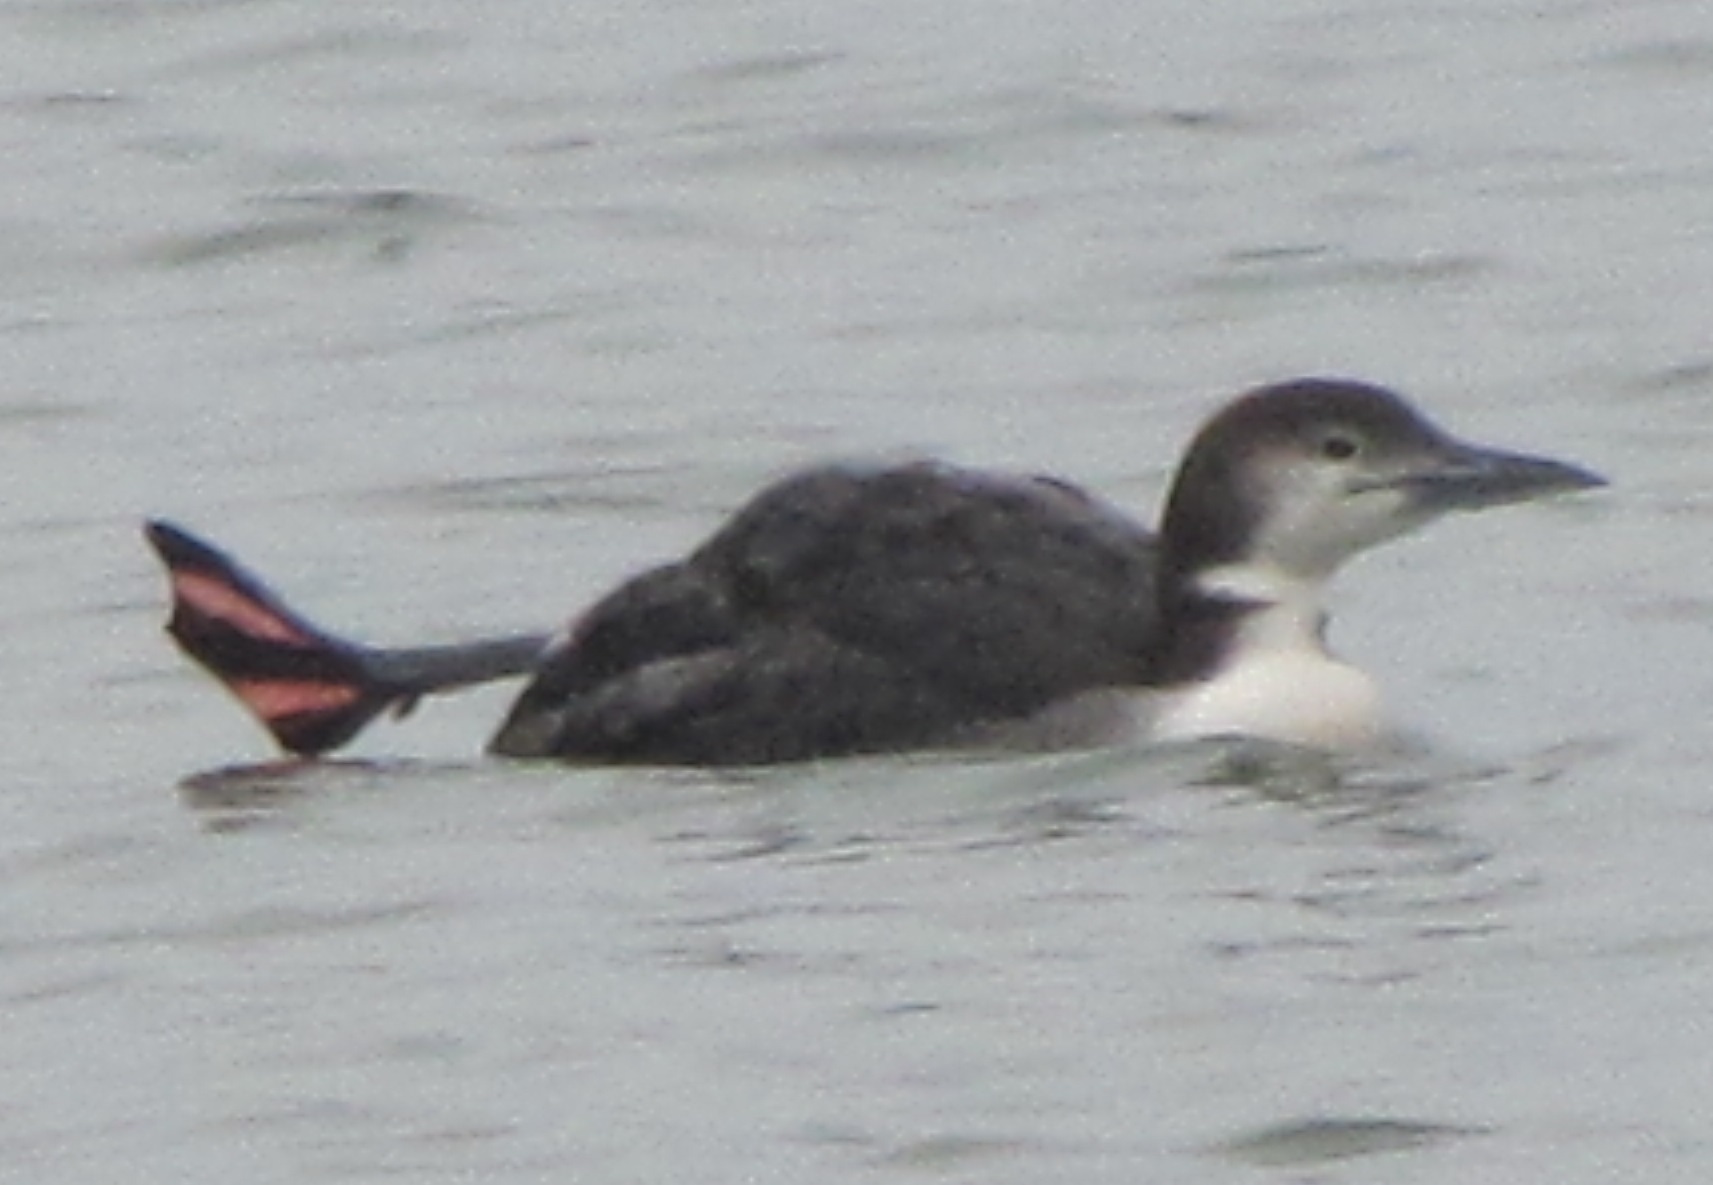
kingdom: Animalia
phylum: Chordata
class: Aves
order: Gaviiformes
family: Gaviidae
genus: Gavia
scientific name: Gavia immer
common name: Common loon
